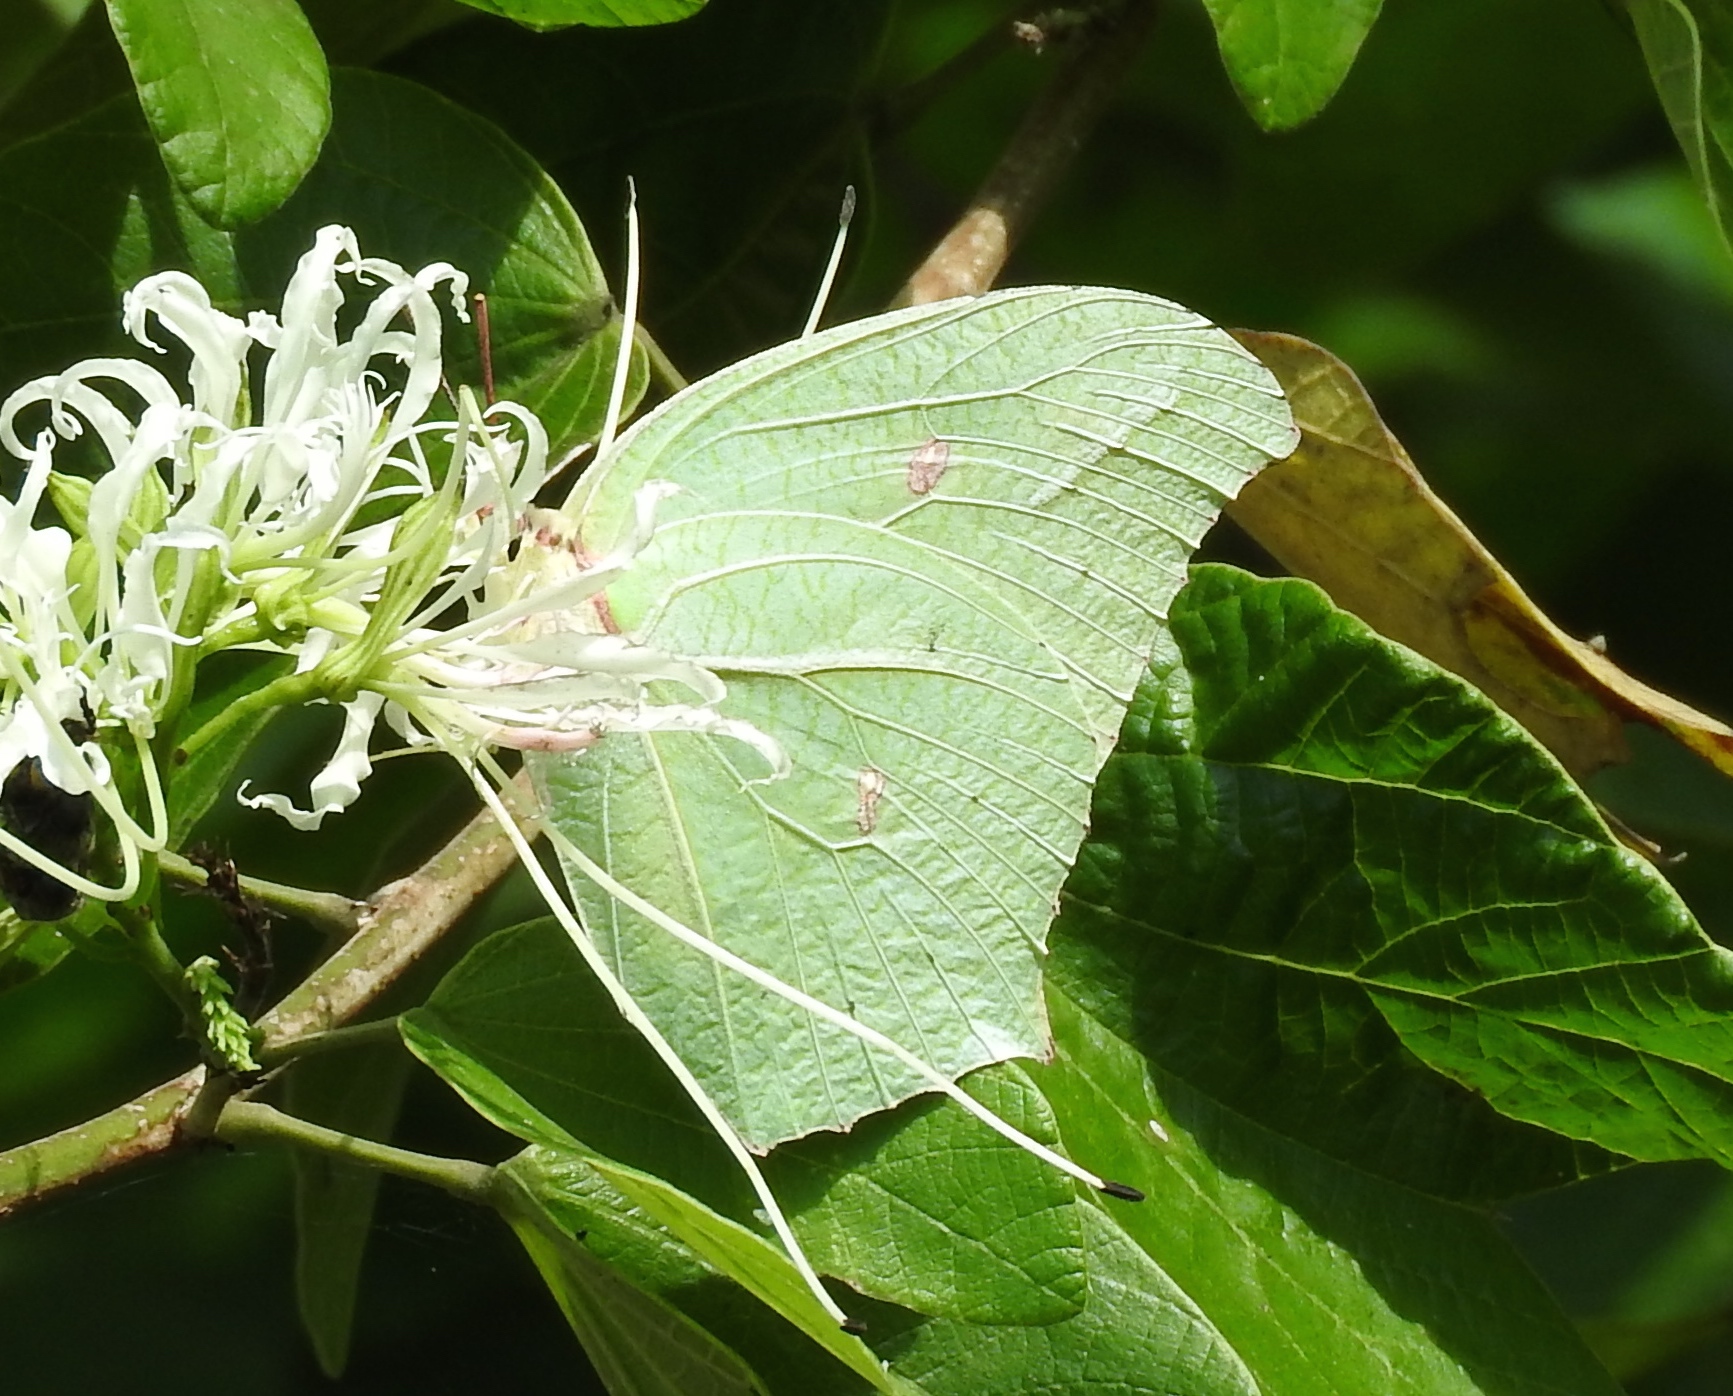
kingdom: Animalia
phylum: Arthropoda
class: Insecta
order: Lepidoptera
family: Pieridae
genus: Anteos
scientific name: Anteos maerula
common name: Angled sulphur
